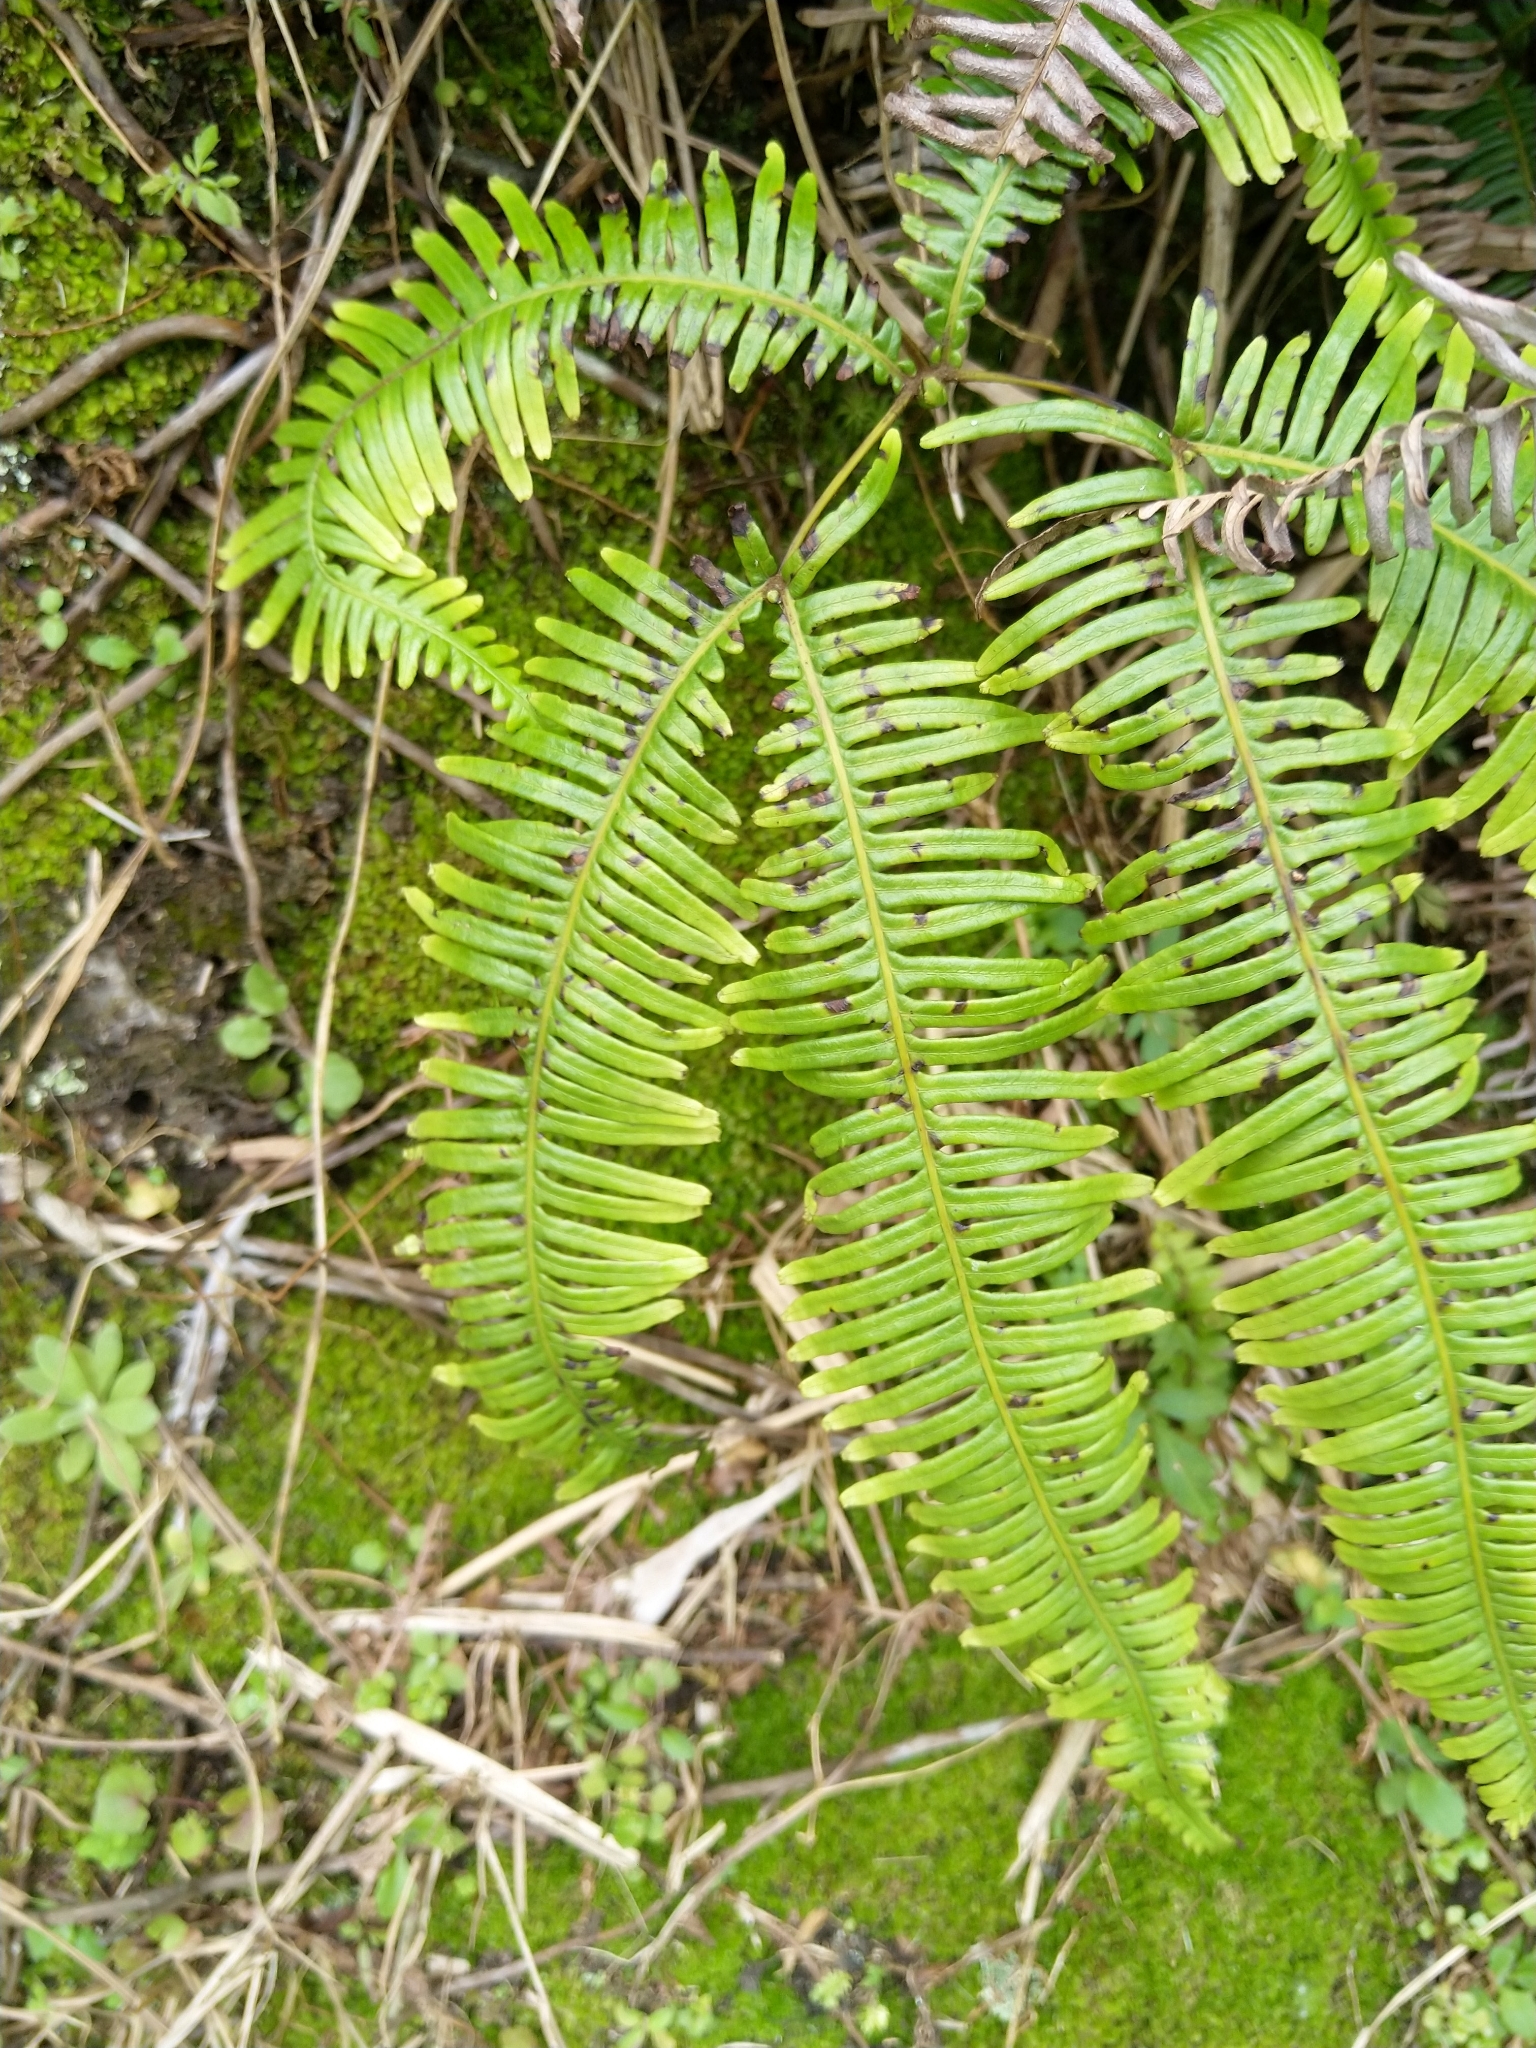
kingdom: Plantae
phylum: Tracheophyta
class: Polypodiopsida
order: Gleicheniales
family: Gleicheniaceae
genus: Dicranopteris
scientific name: Dicranopteris linearis
